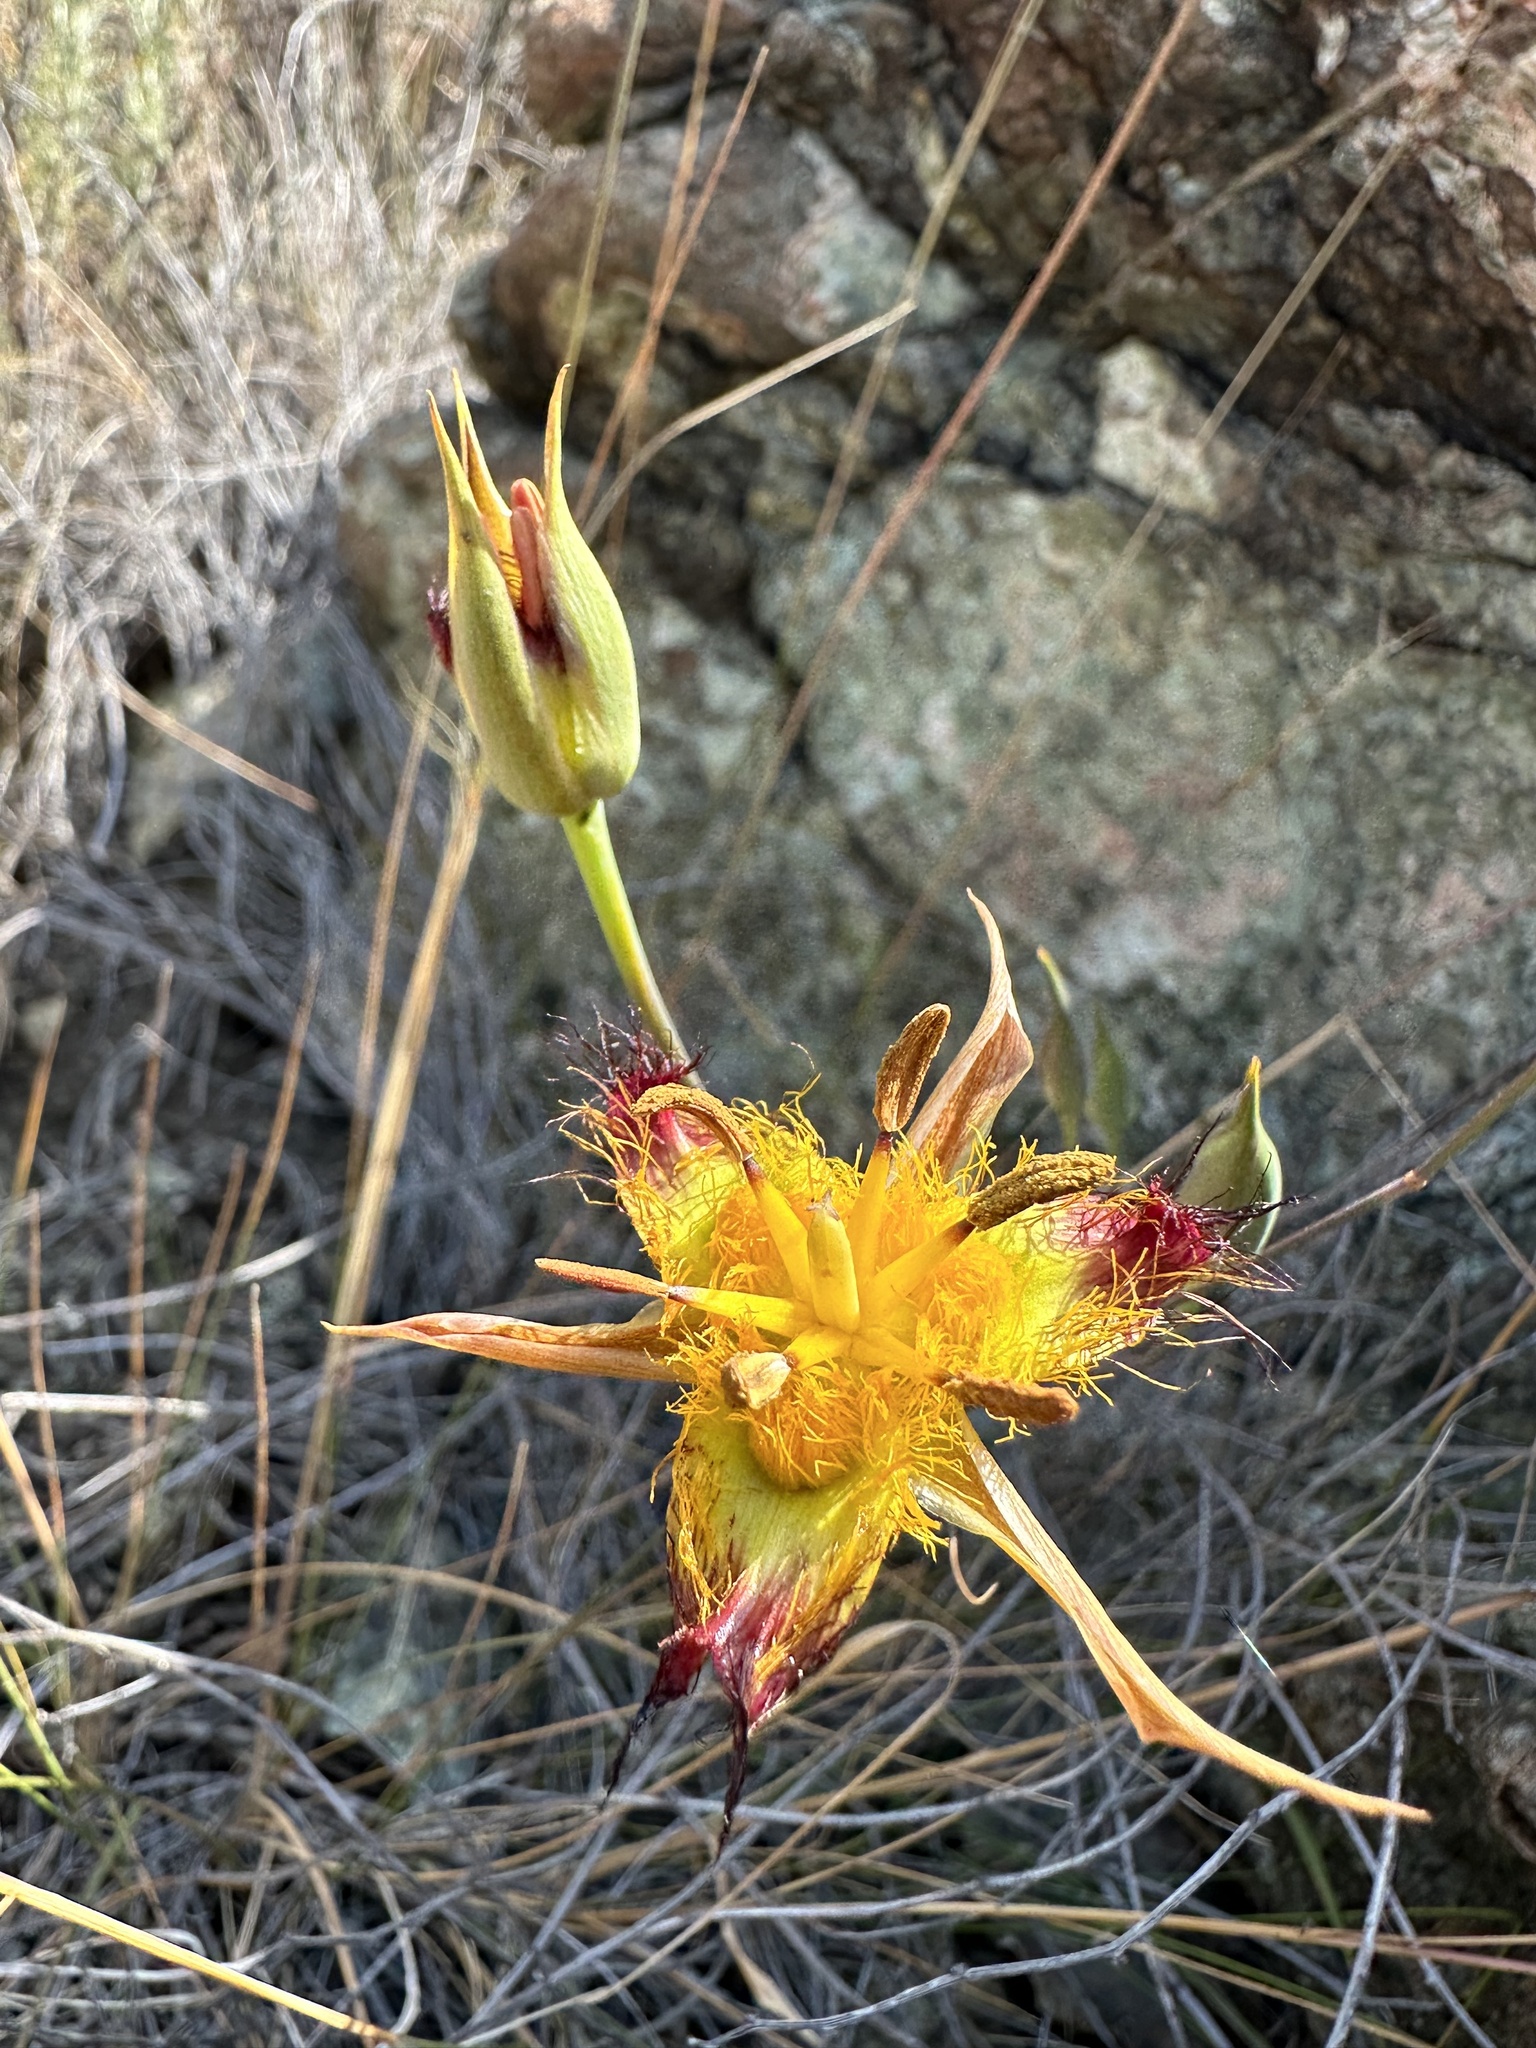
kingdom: Plantae
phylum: Tracheophyta
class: Liliopsida
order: Liliales
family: Liliaceae
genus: Calochortus
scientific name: Calochortus obispoensis
